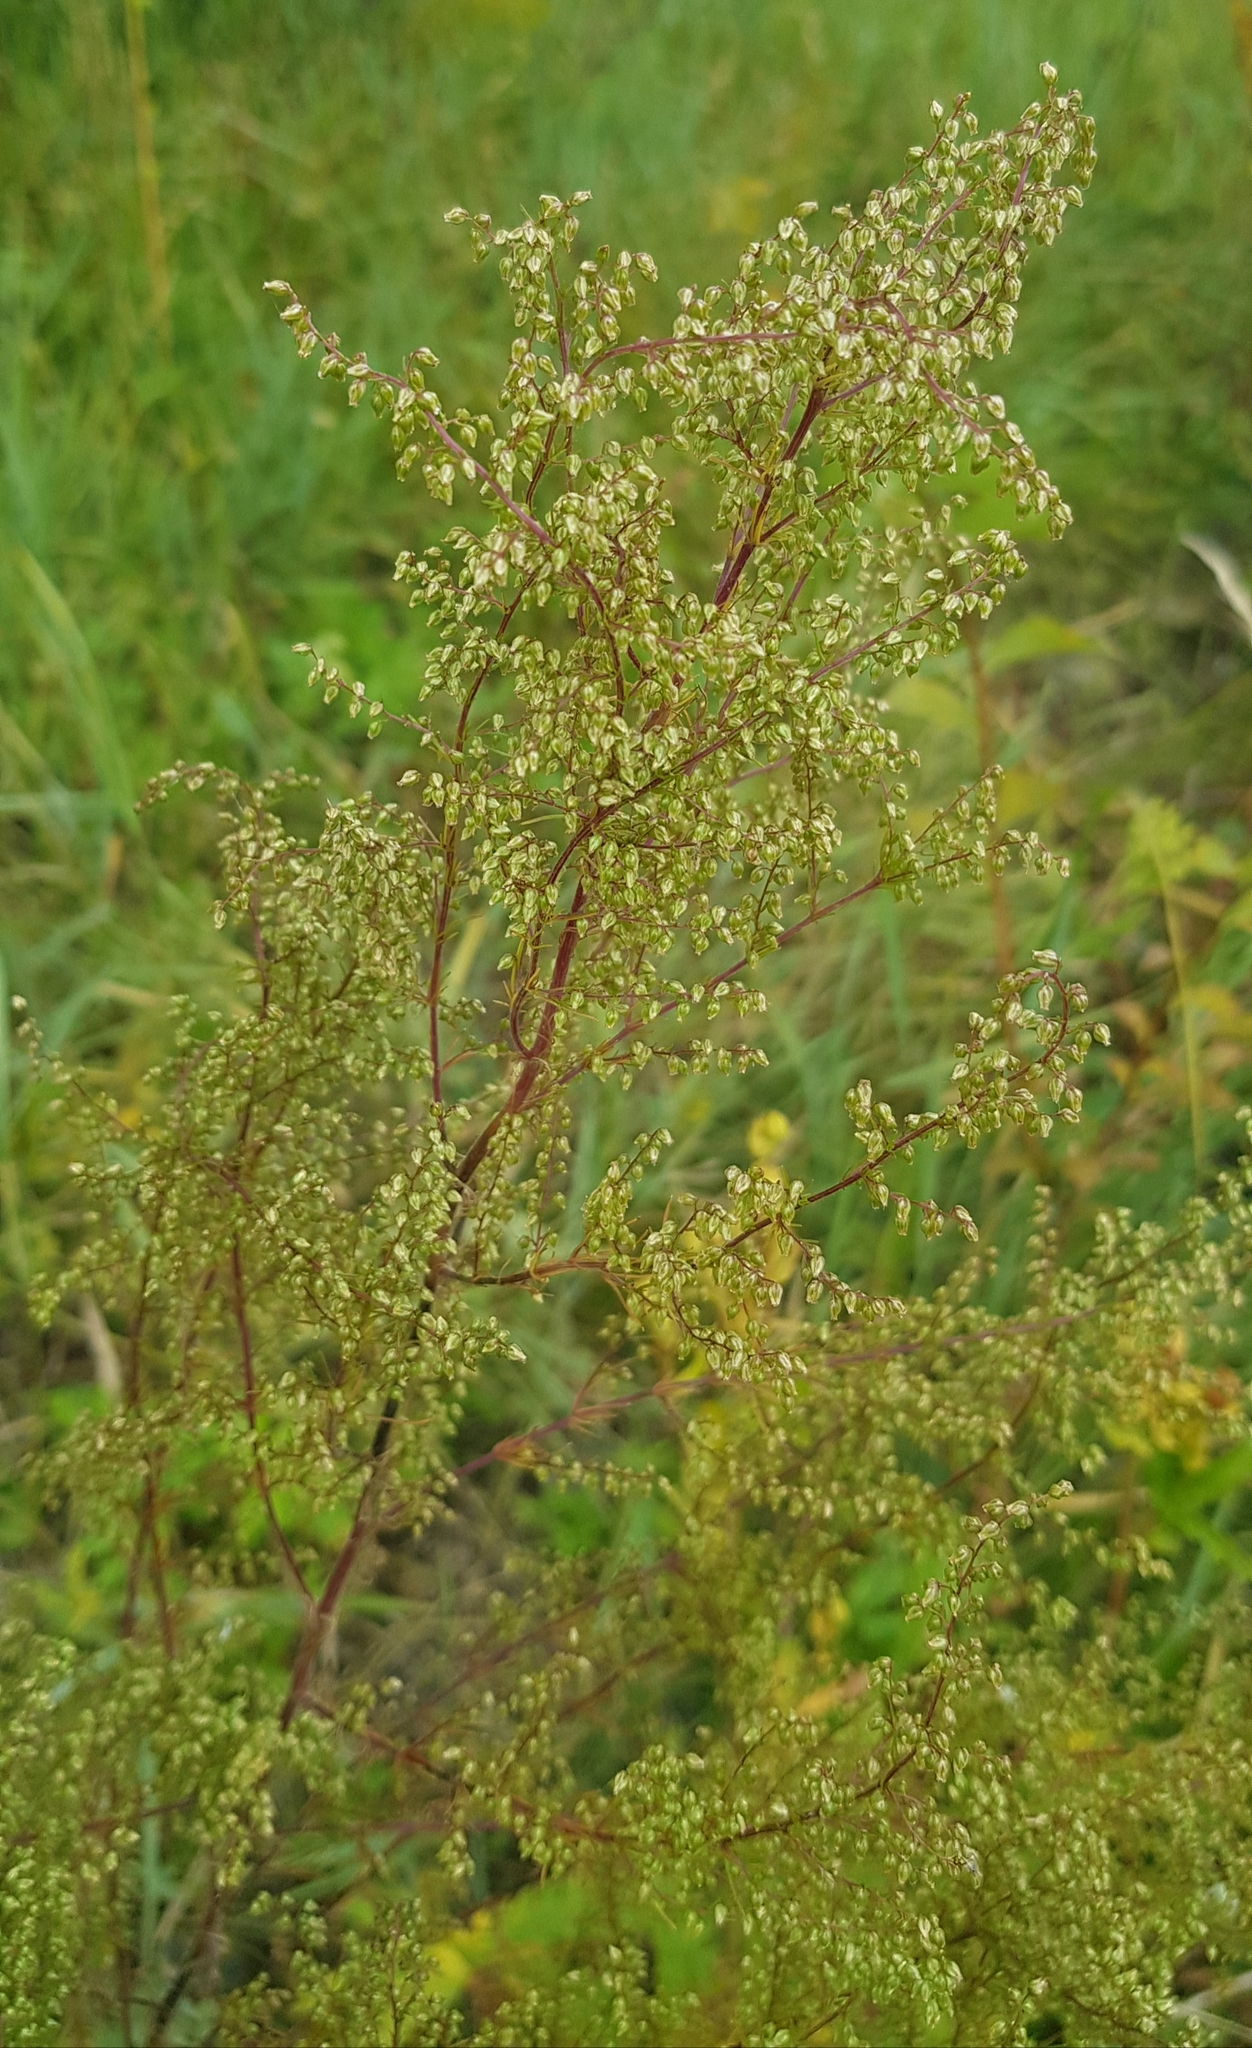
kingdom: Plantae
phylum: Tracheophyta
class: Magnoliopsida
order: Asterales
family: Asteraceae
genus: Artemisia
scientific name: Artemisia scoparia
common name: Redstem wormwood
